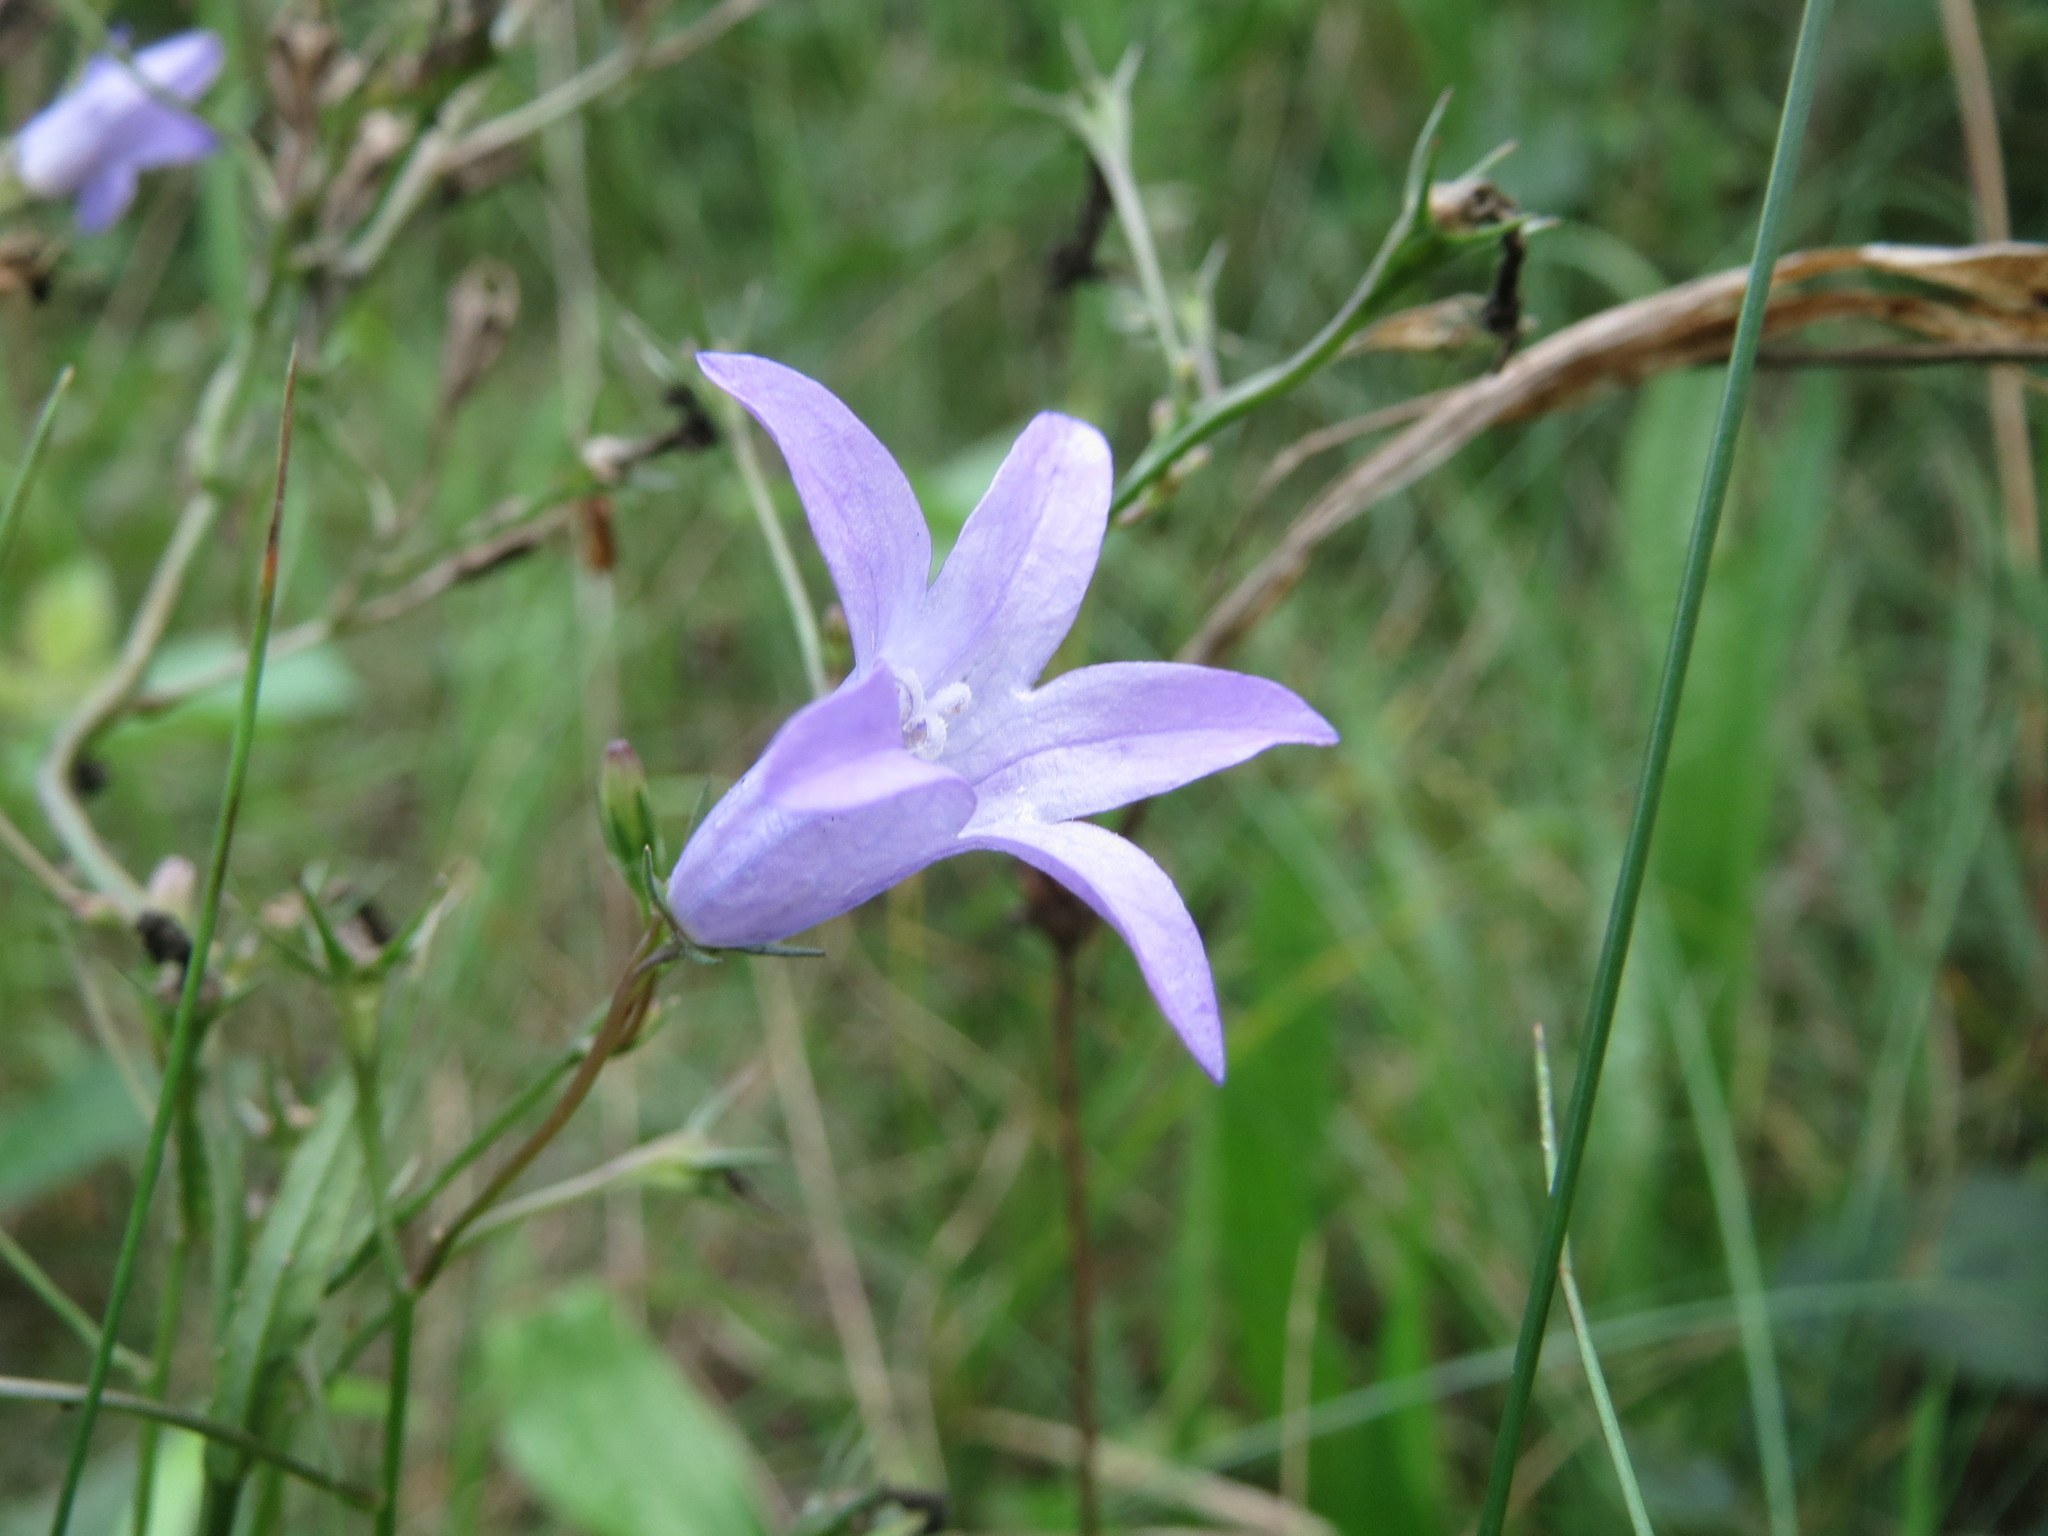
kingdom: Plantae
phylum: Tracheophyta
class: Magnoliopsida
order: Asterales
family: Campanulaceae
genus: Campanula
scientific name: Campanula rapunculus
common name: Rampion bellflower
